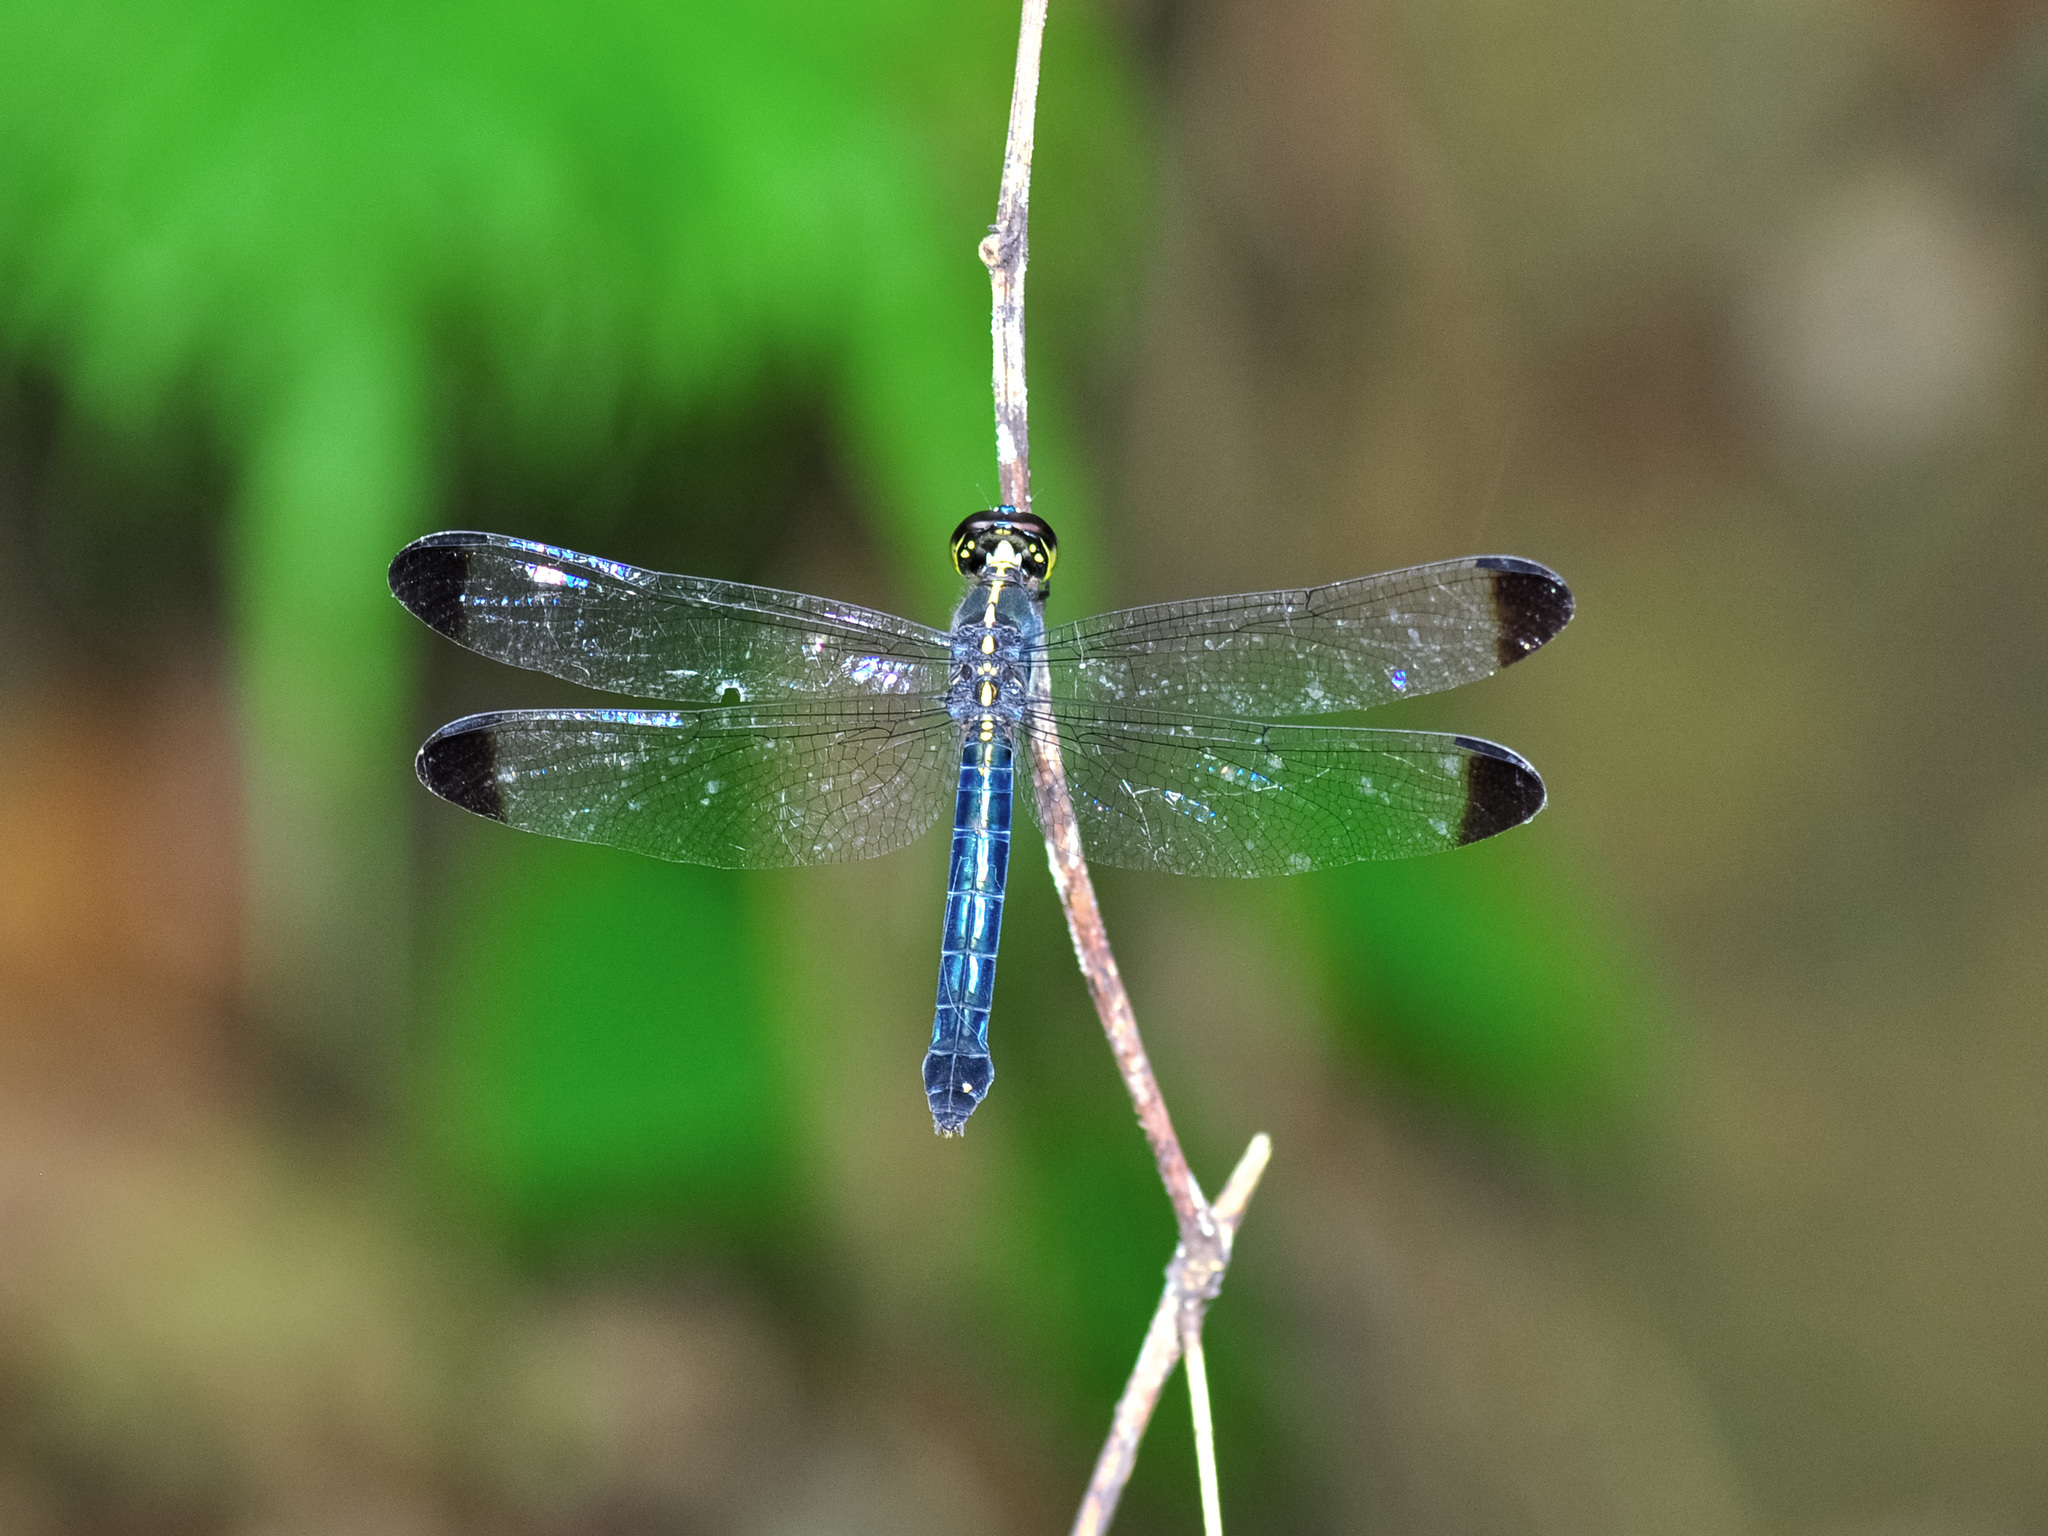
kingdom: Animalia
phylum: Arthropoda
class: Insecta
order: Odonata
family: Libellulidae
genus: Cratilla
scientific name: Cratilla metallica
